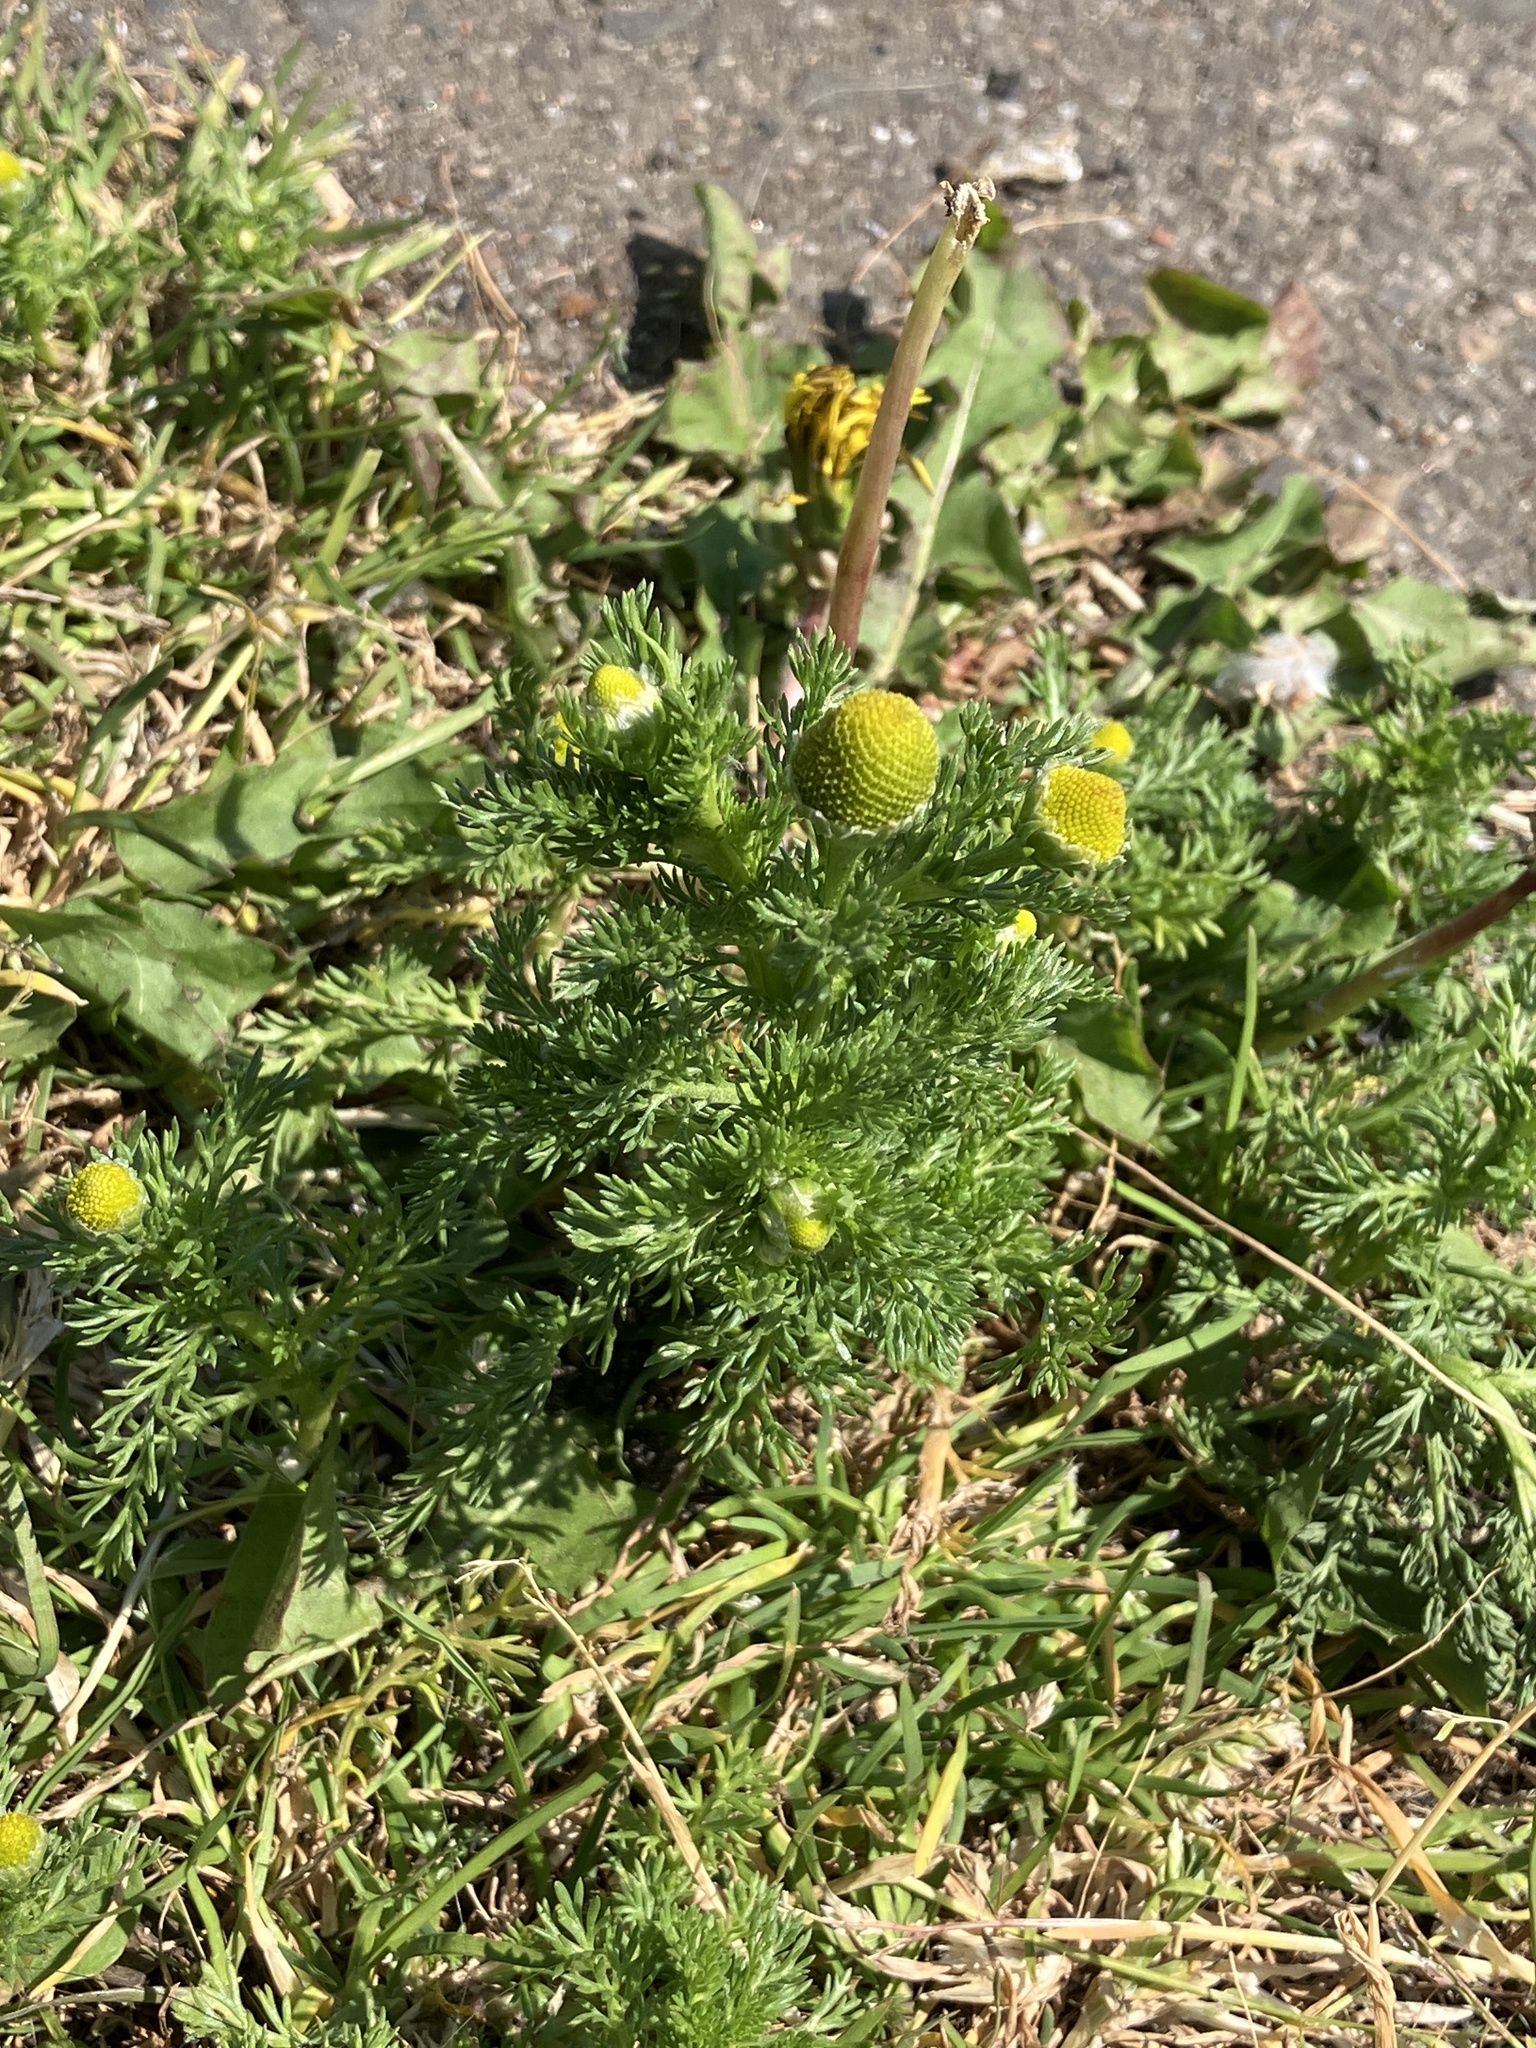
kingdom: Plantae
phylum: Tracheophyta
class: Magnoliopsida
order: Asterales
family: Asteraceae
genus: Matricaria
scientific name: Matricaria discoidea
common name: Disc mayweed
